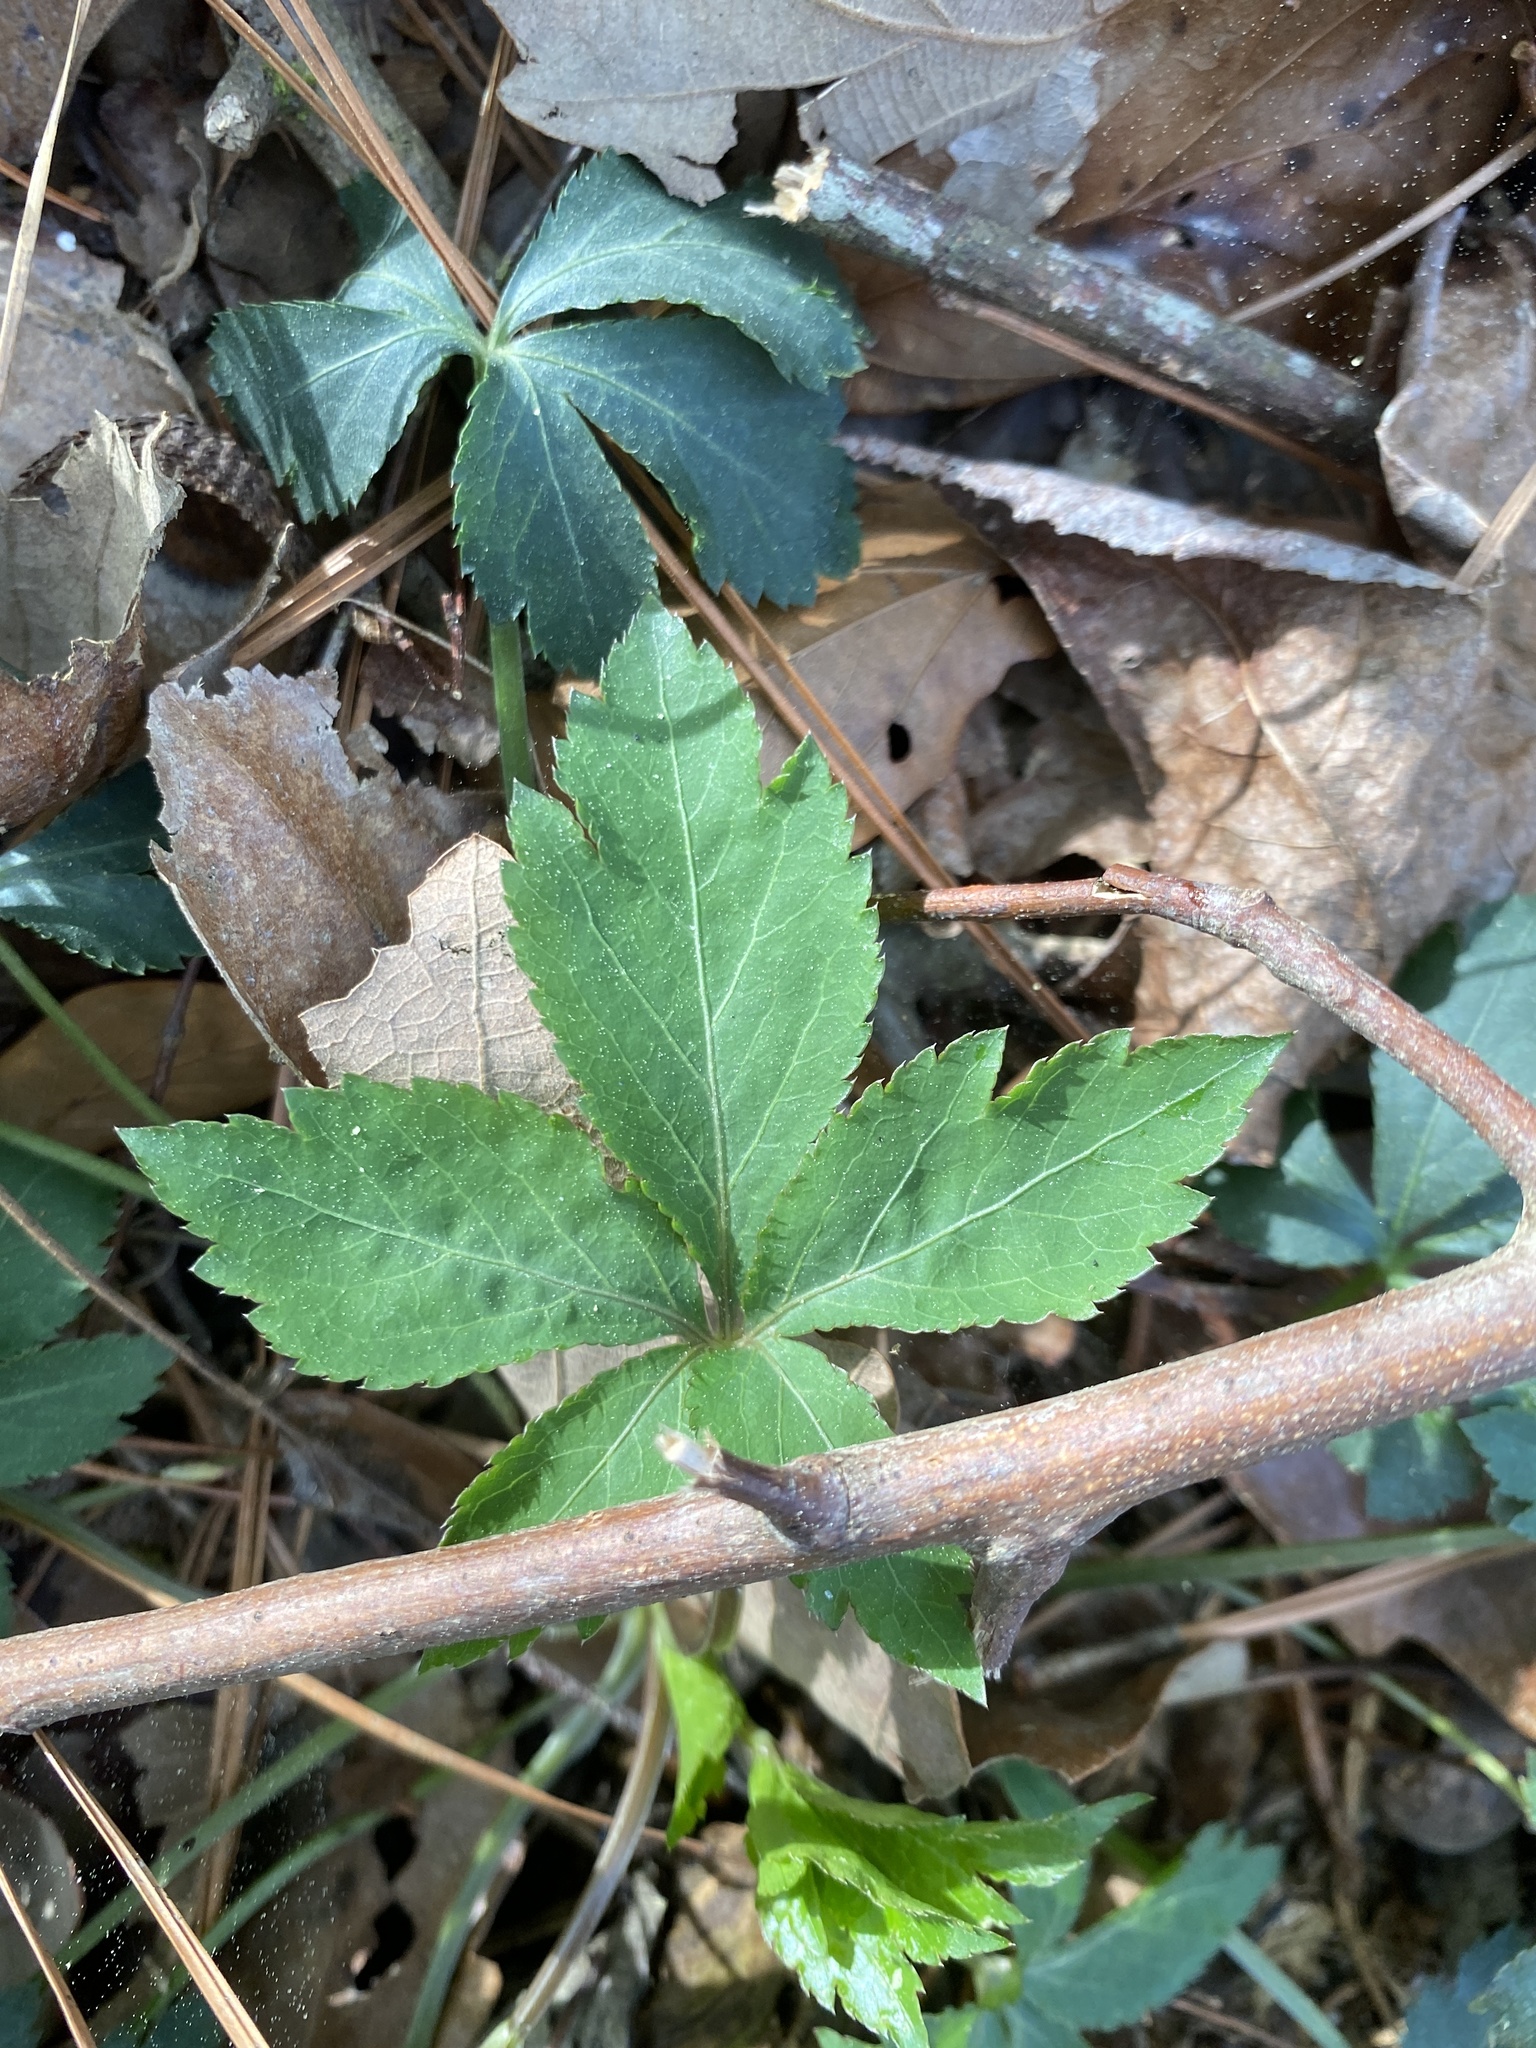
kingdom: Plantae
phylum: Tracheophyta
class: Magnoliopsida
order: Apiales
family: Apiaceae
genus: Sanicula
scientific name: Sanicula canadensis
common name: Canada sanicle
